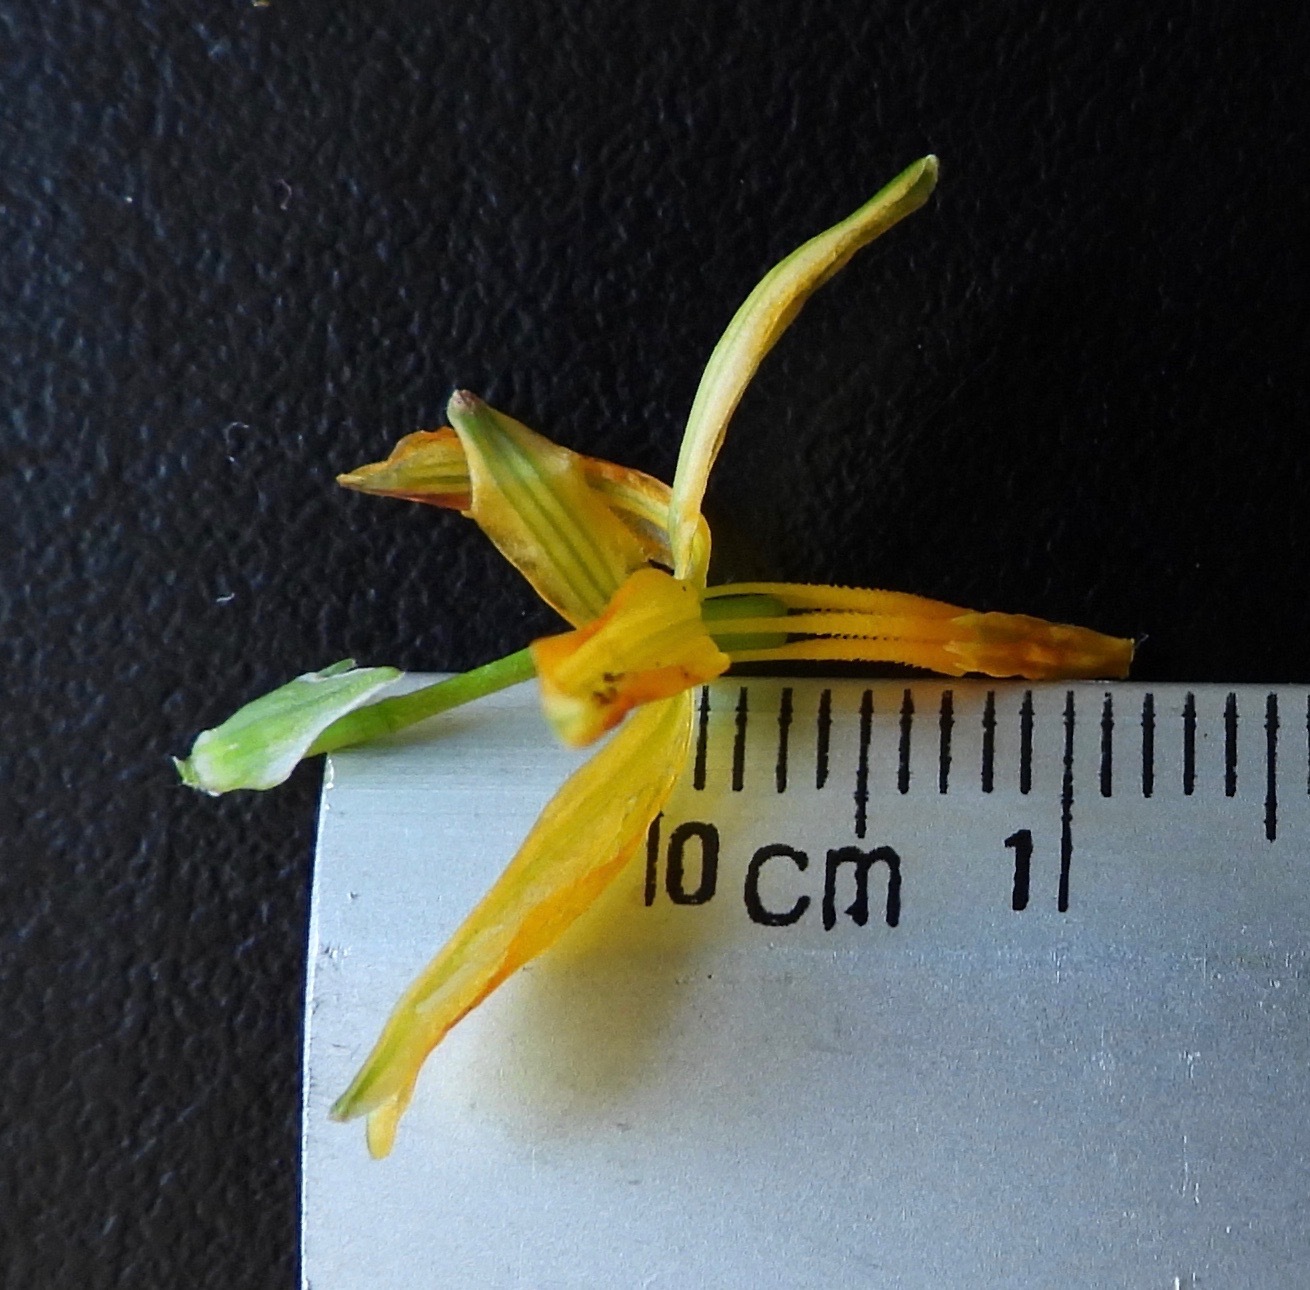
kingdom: Plantae
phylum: Tracheophyta
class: Liliopsida
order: Asparagales
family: Asparagaceae
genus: Echeandia
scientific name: Echeandia pseudoreflexa
